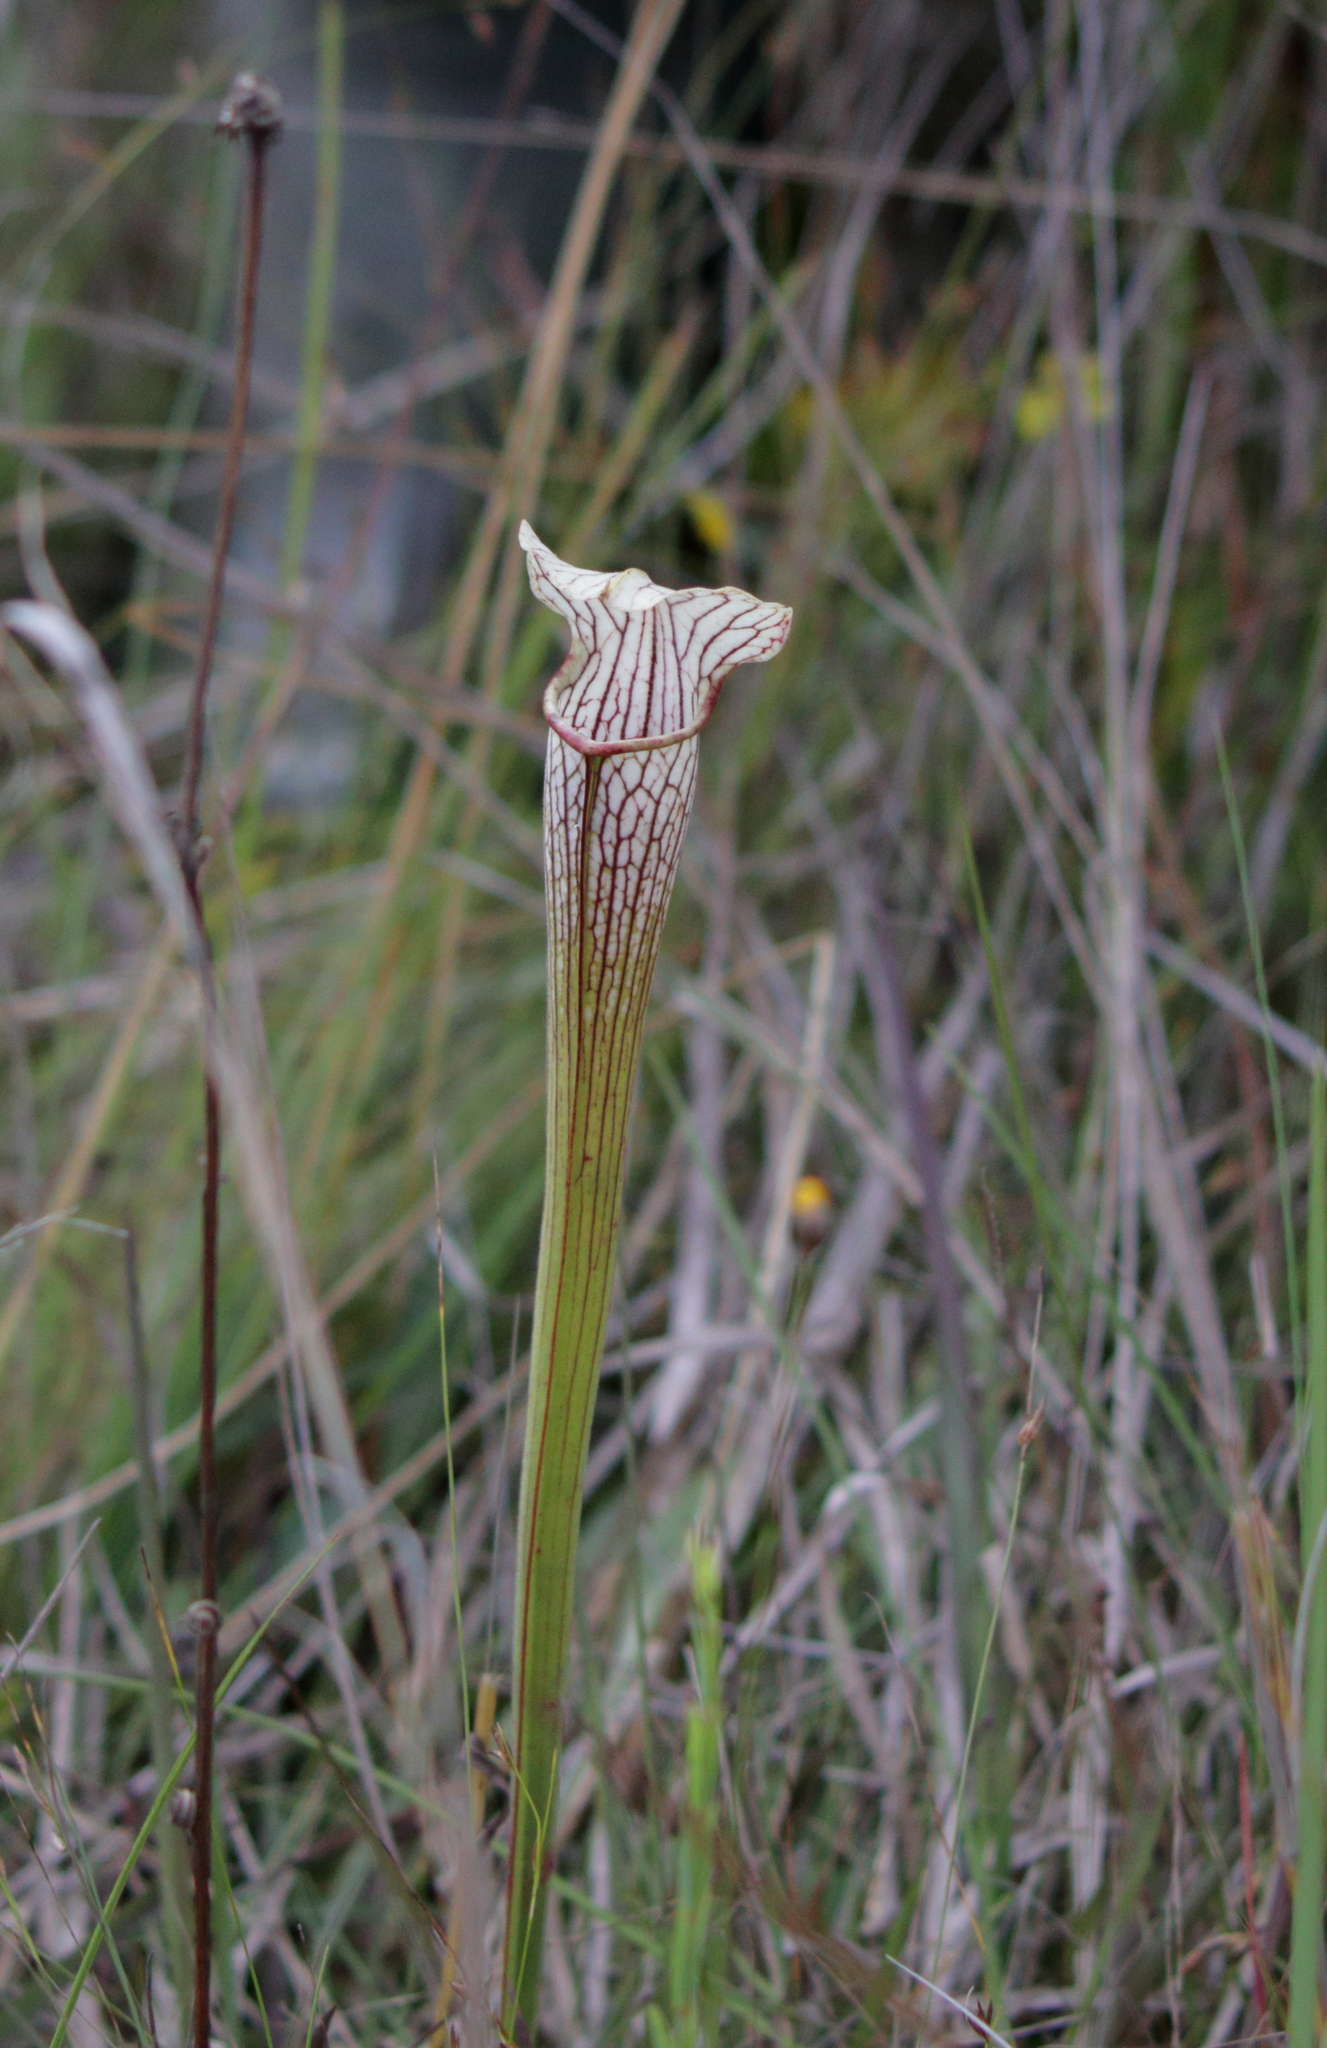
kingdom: Plantae
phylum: Tracheophyta
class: Magnoliopsida
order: Ericales
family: Sarraceniaceae
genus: Sarracenia
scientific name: Sarracenia areolata
